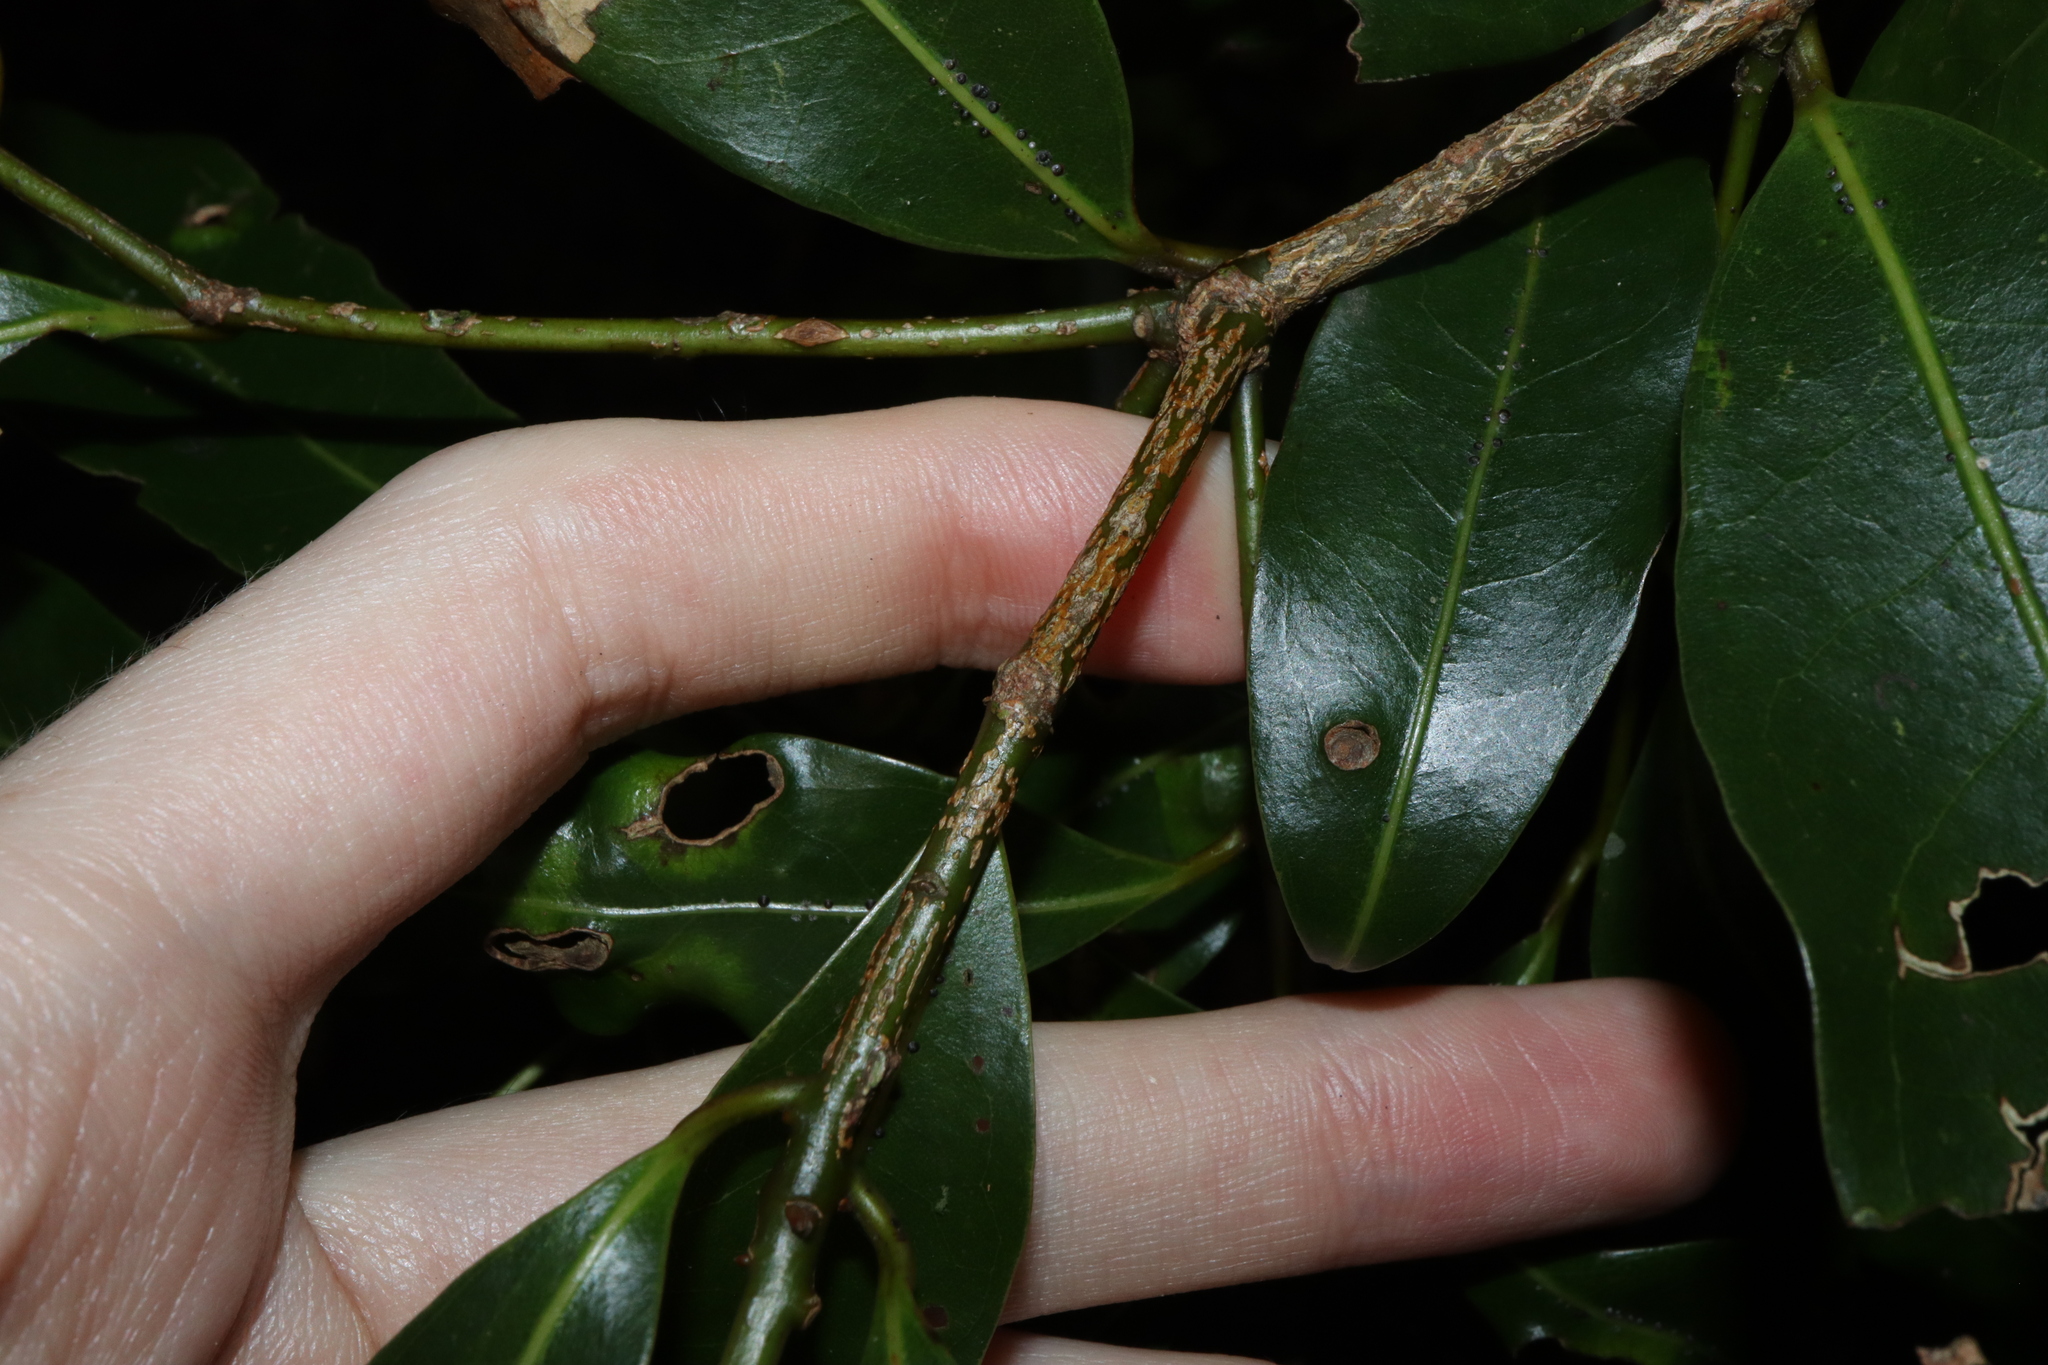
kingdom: Plantae
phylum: Tracheophyta
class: Magnoliopsida
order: Laurales
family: Lauraceae
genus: Cinnamomum
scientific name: Cinnamomum oliveri
